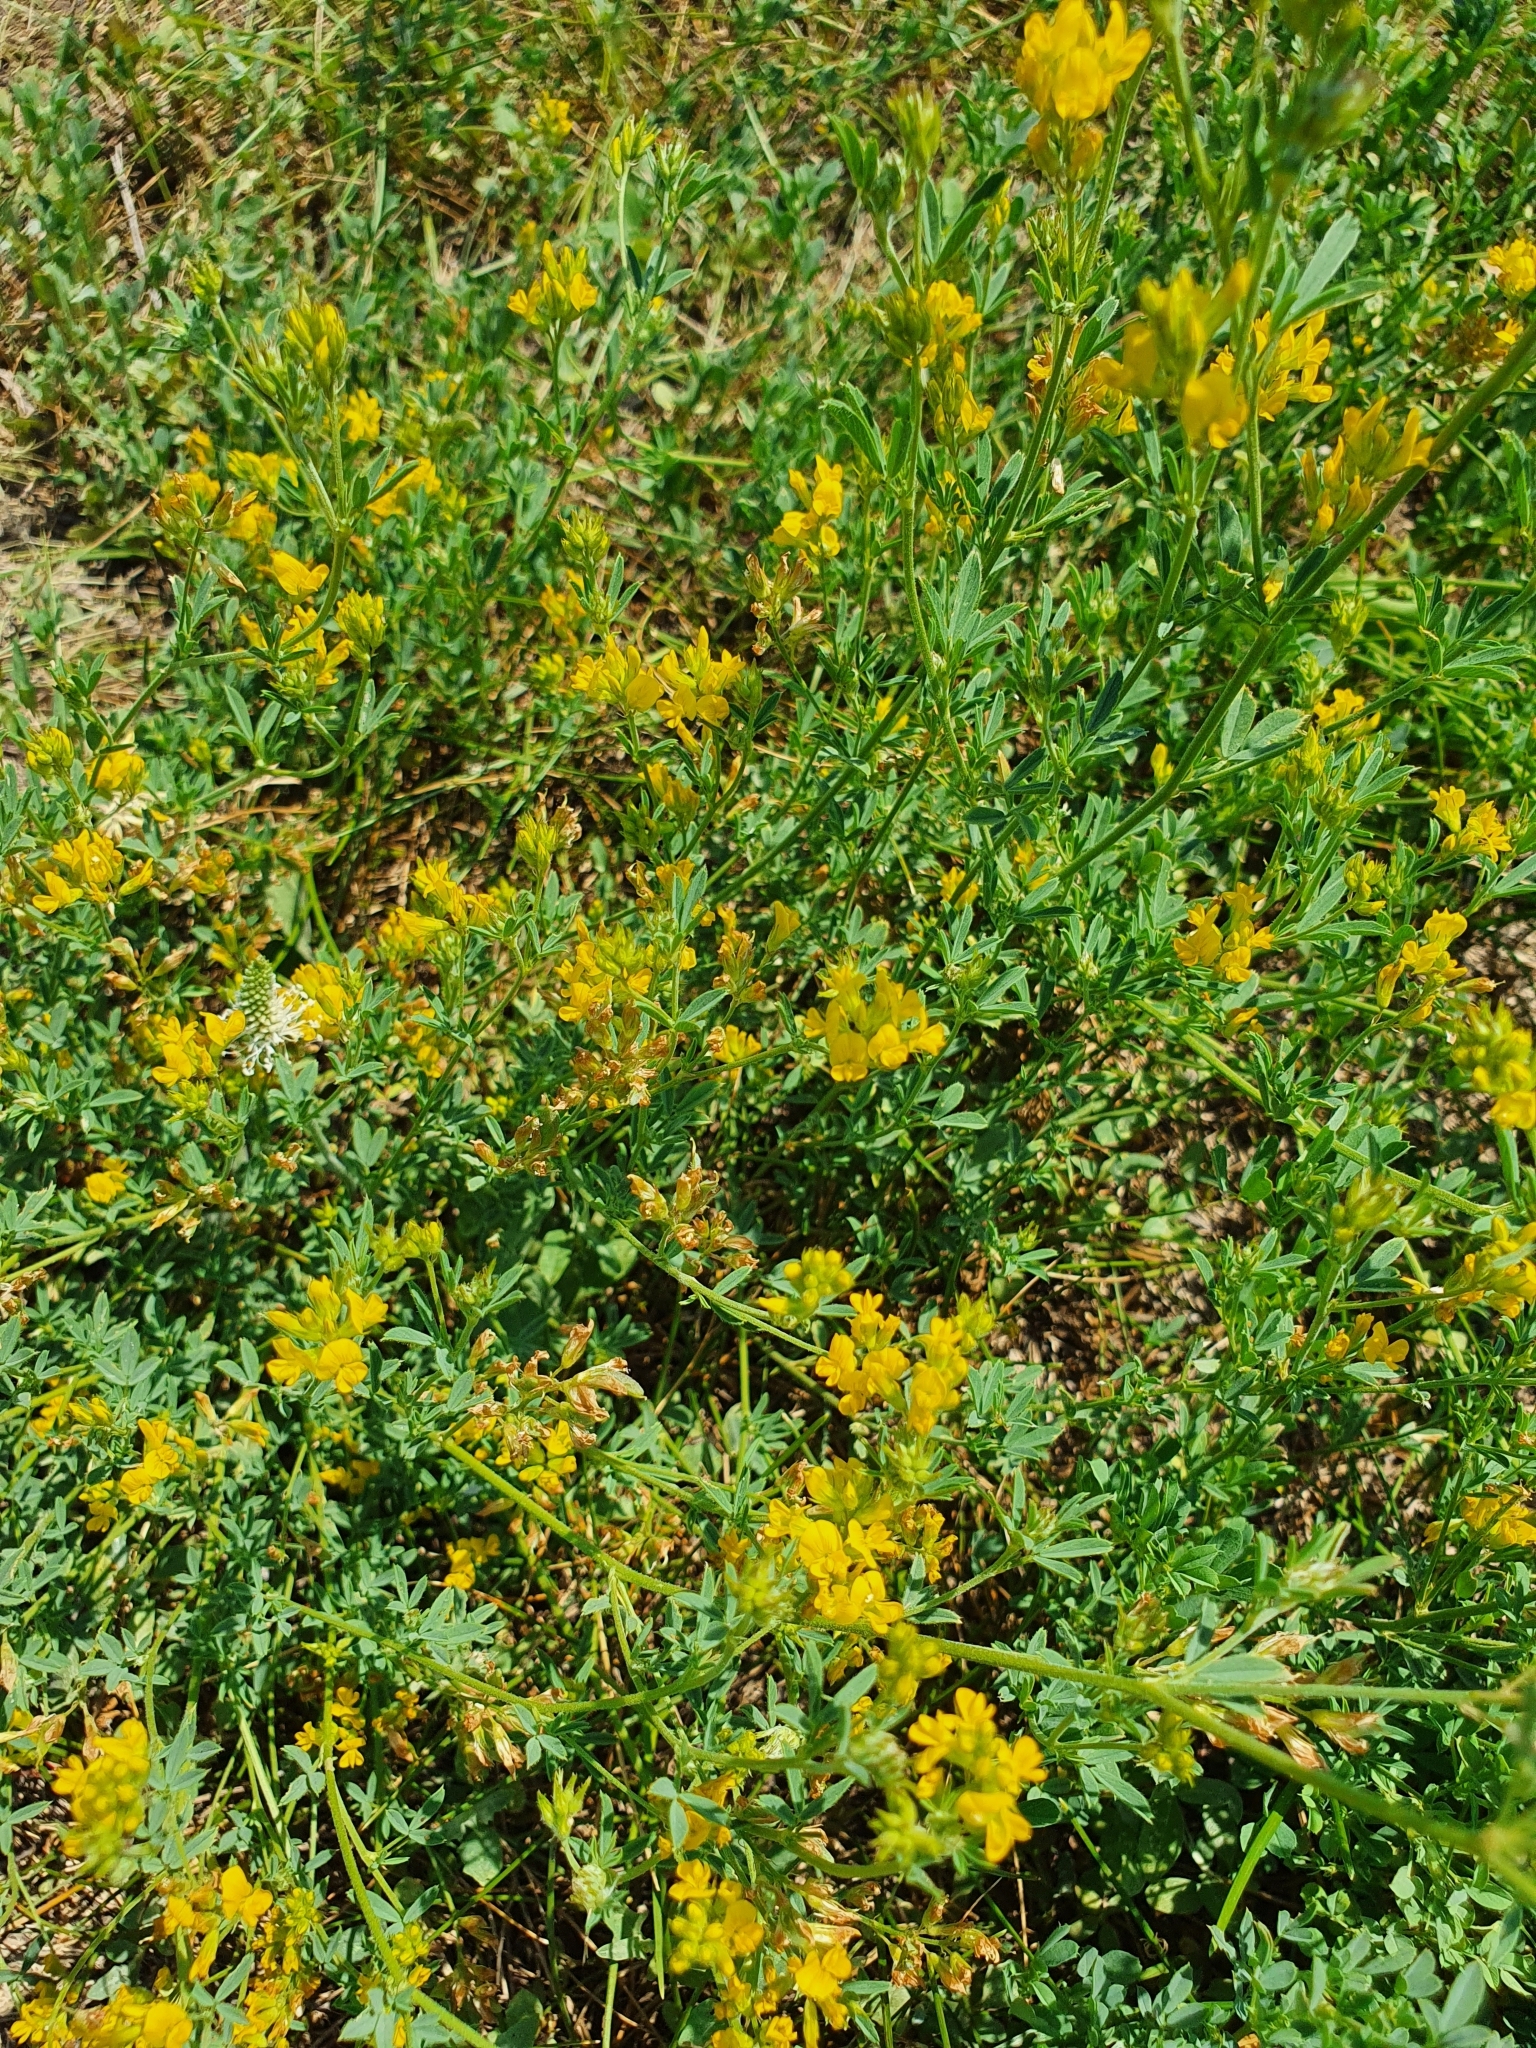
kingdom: Plantae
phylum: Tracheophyta
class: Magnoliopsida
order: Fabales
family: Fabaceae
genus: Medicago
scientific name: Medicago falcata
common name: Sickle medick
